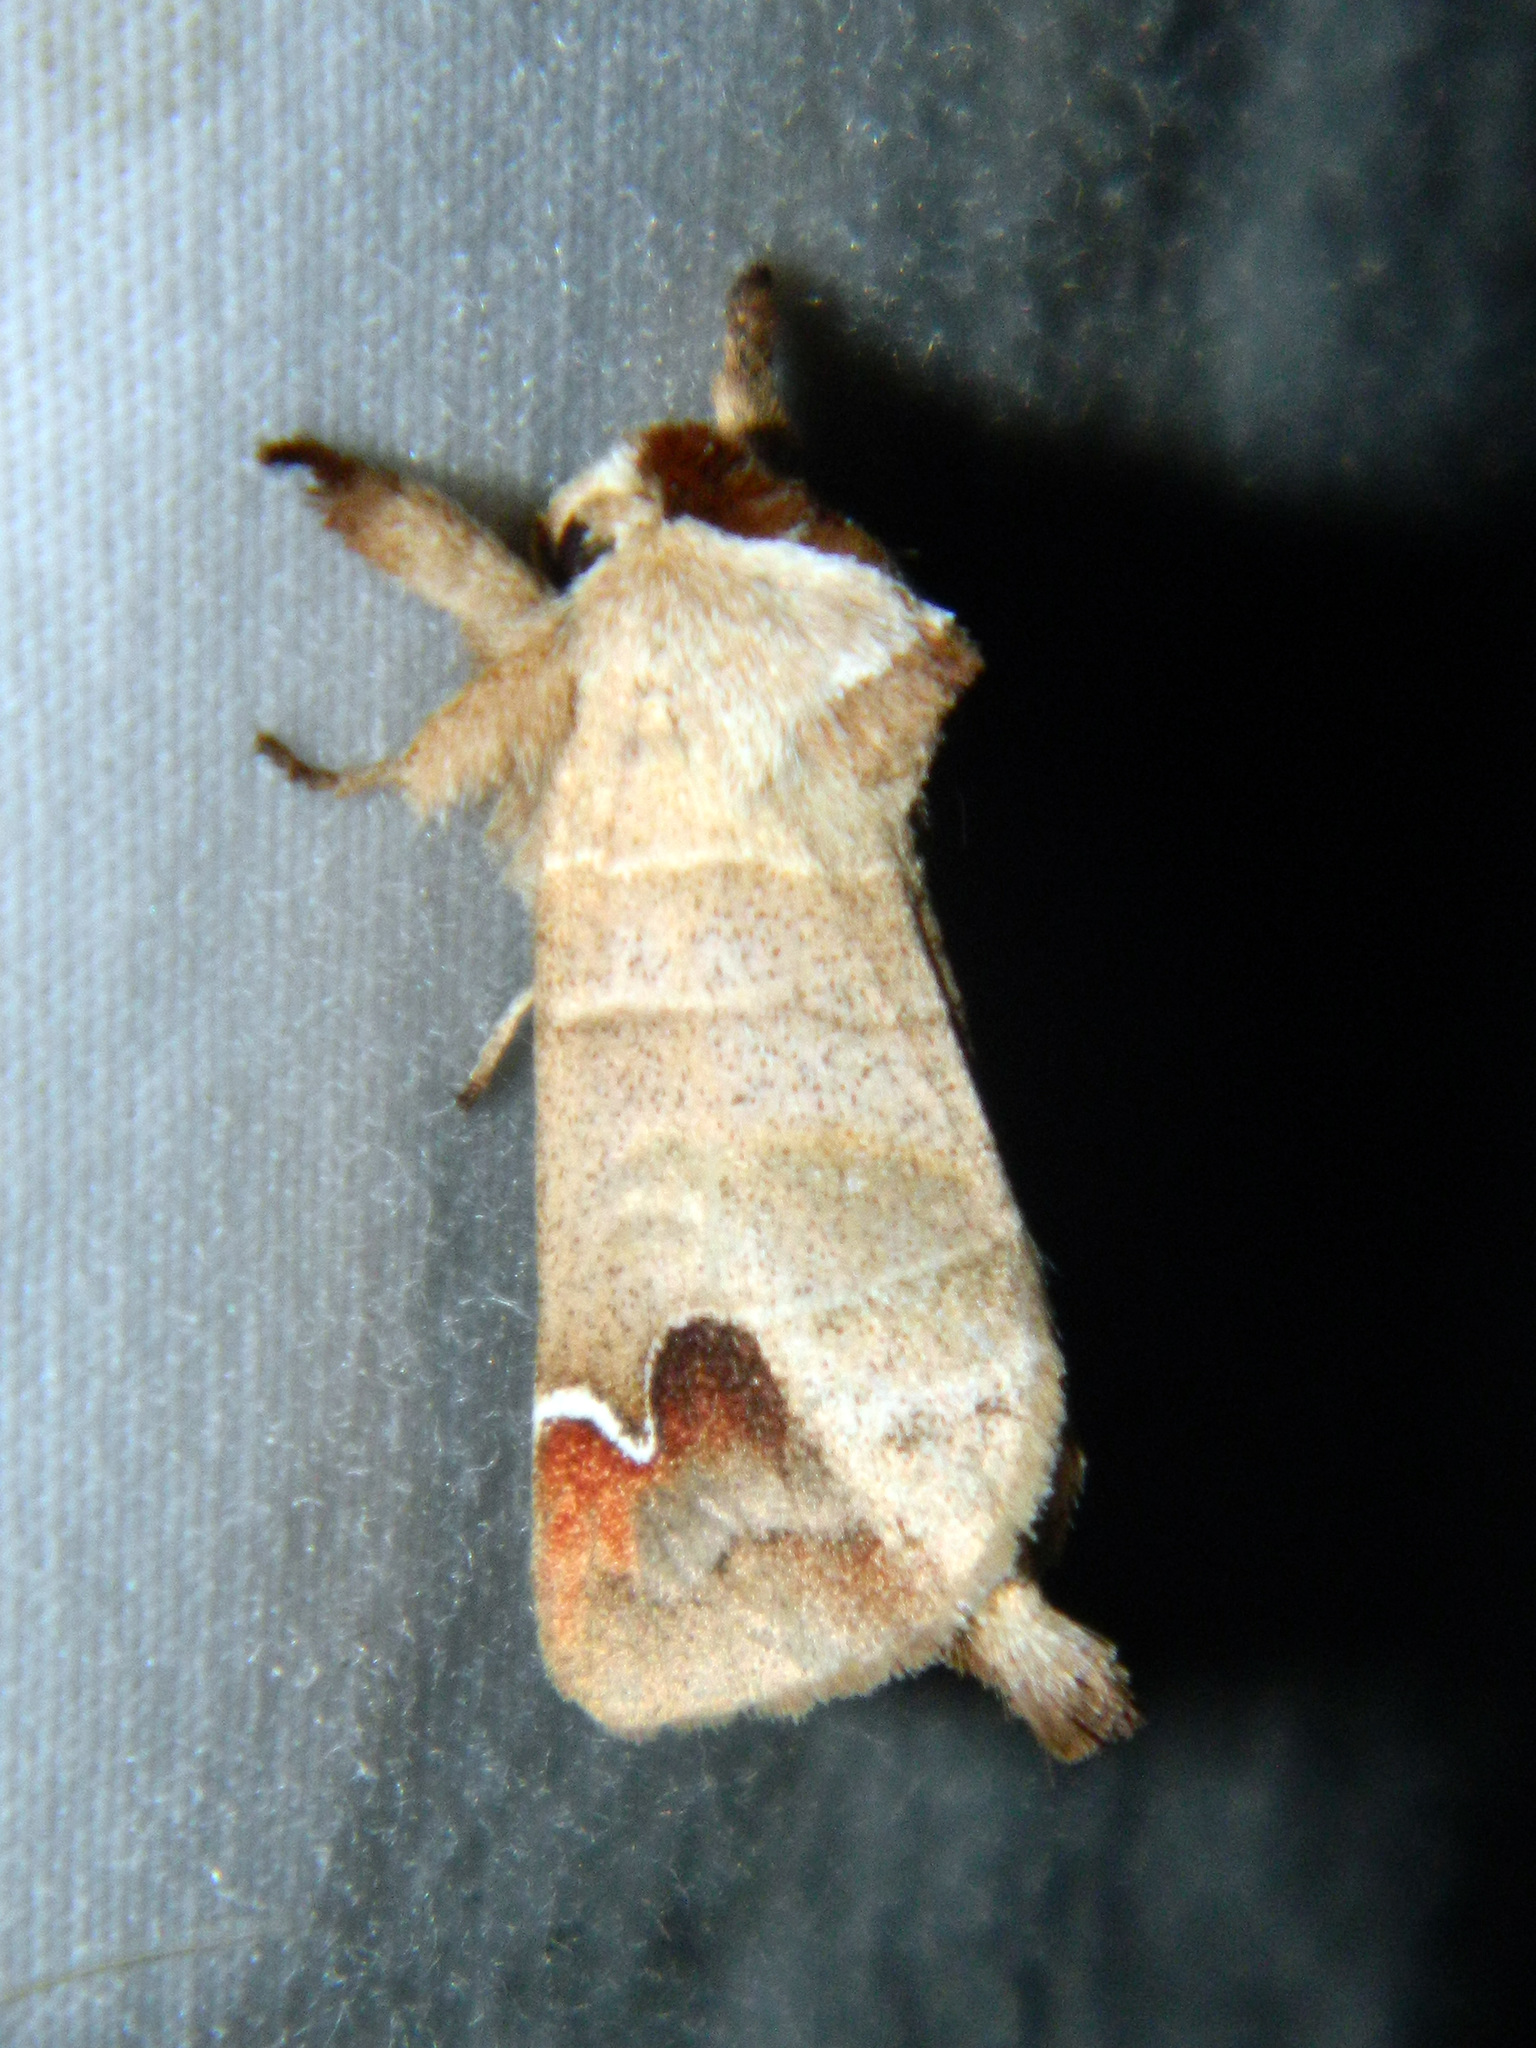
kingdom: Animalia
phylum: Arthropoda
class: Insecta
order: Lepidoptera
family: Notodontidae
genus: Clostera
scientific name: Clostera albosigma
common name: Sigmoid prominent
